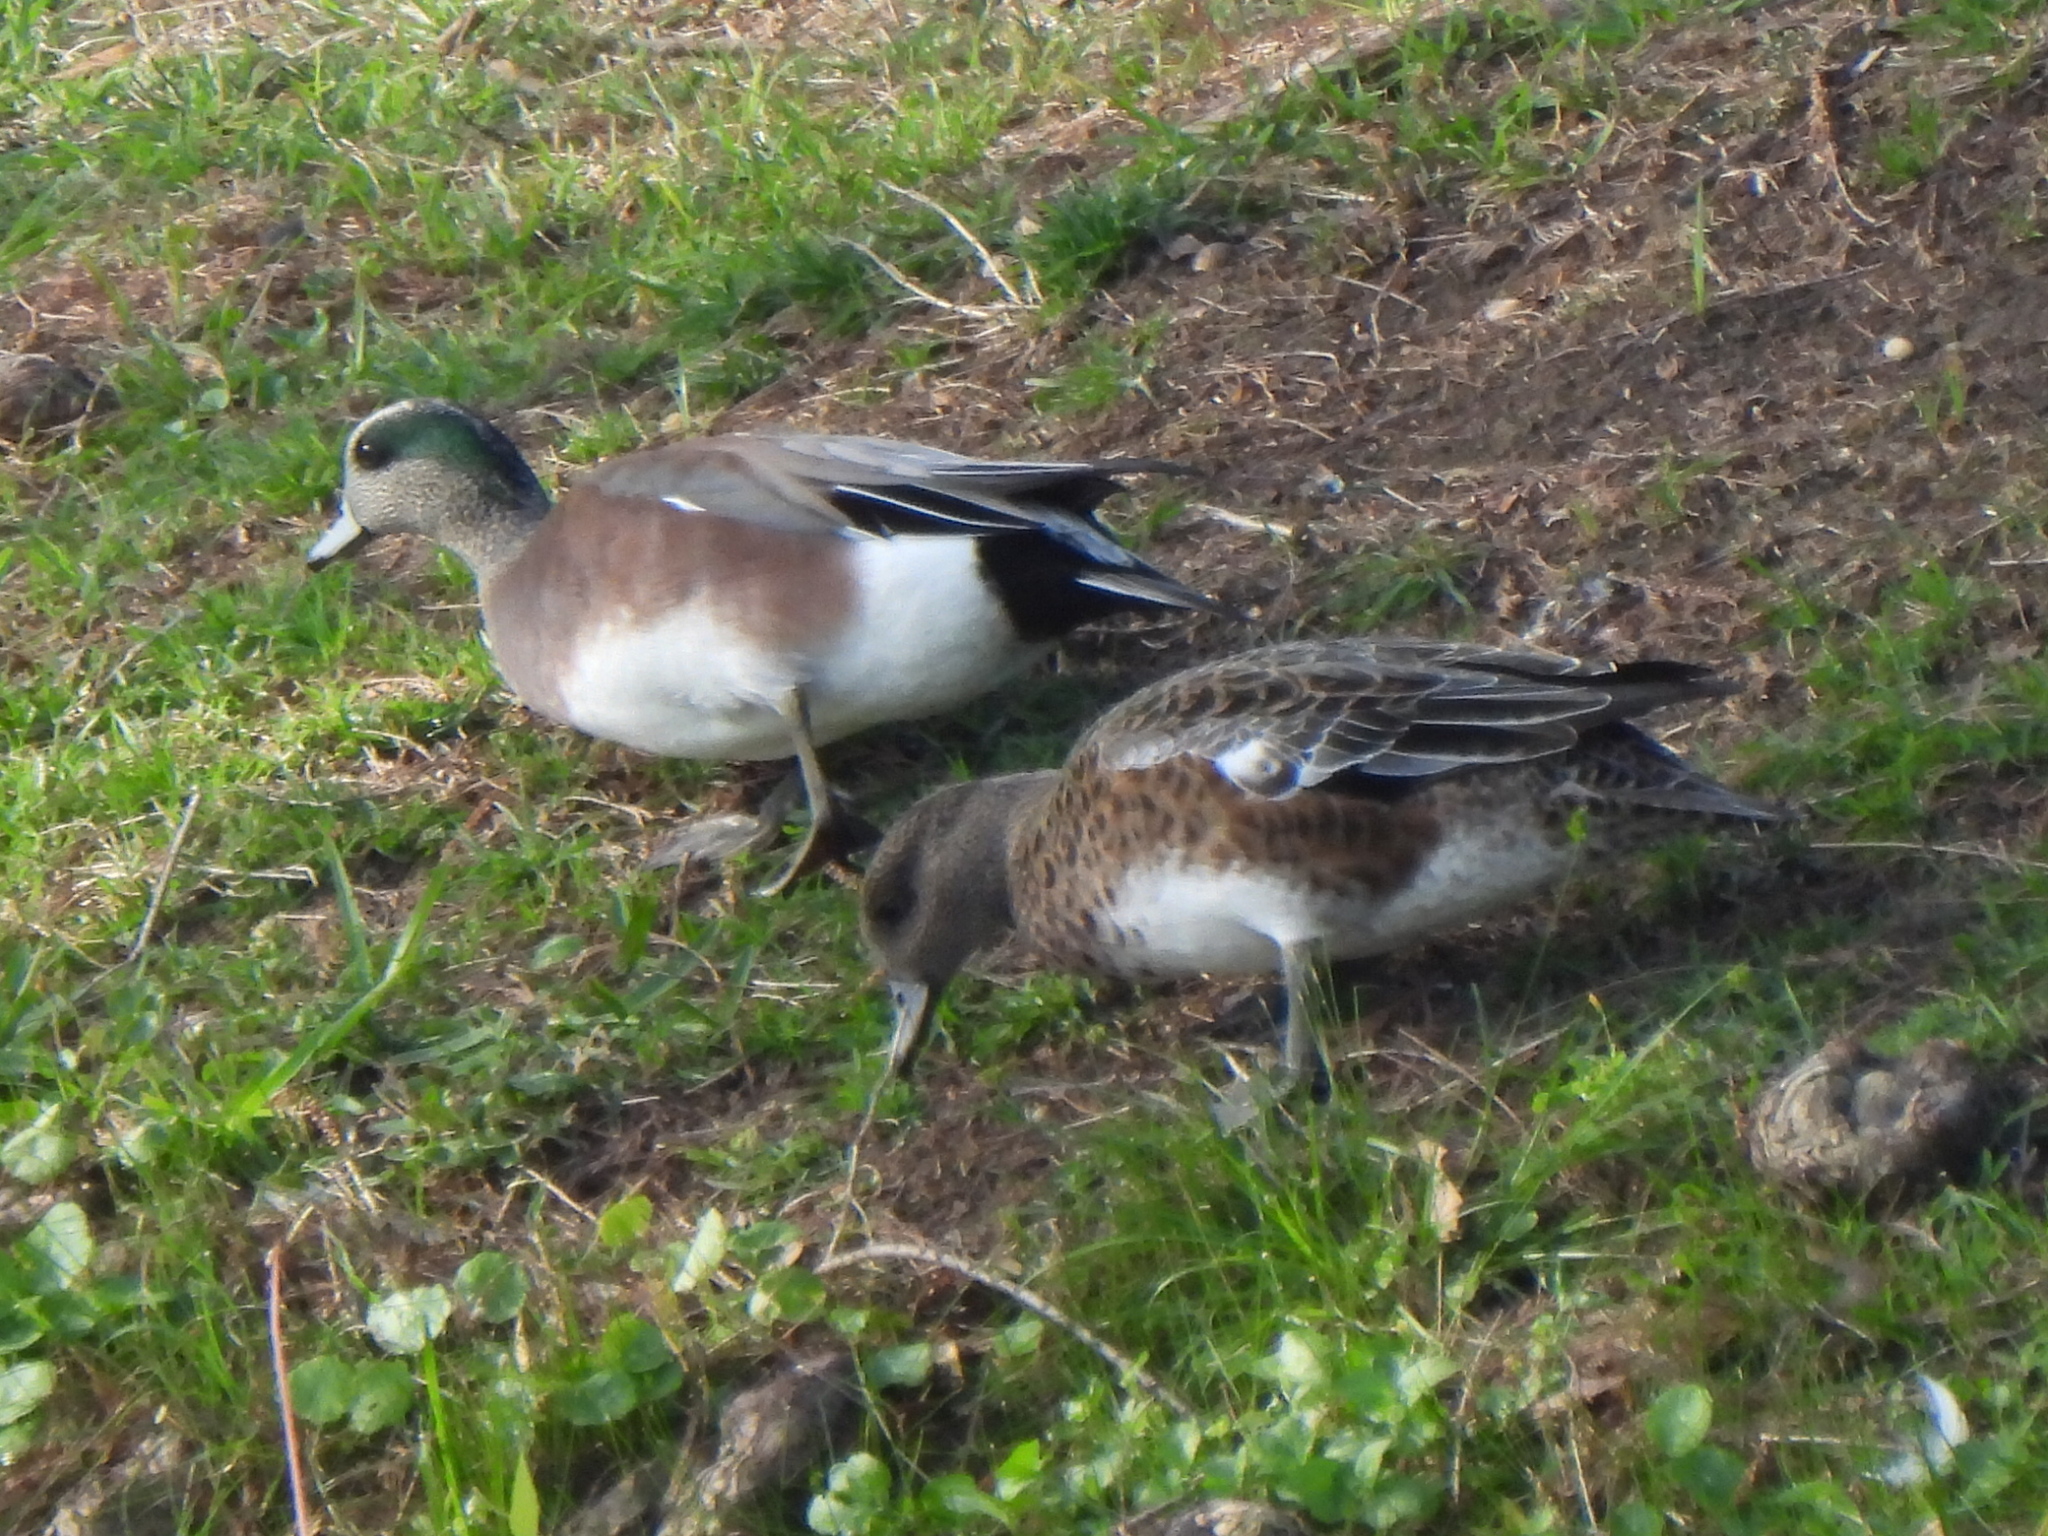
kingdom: Animalia
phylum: Chordata
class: Aves
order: Anseriformes
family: Anatidae
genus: Mareca
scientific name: Mareca americana
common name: American wigeon
